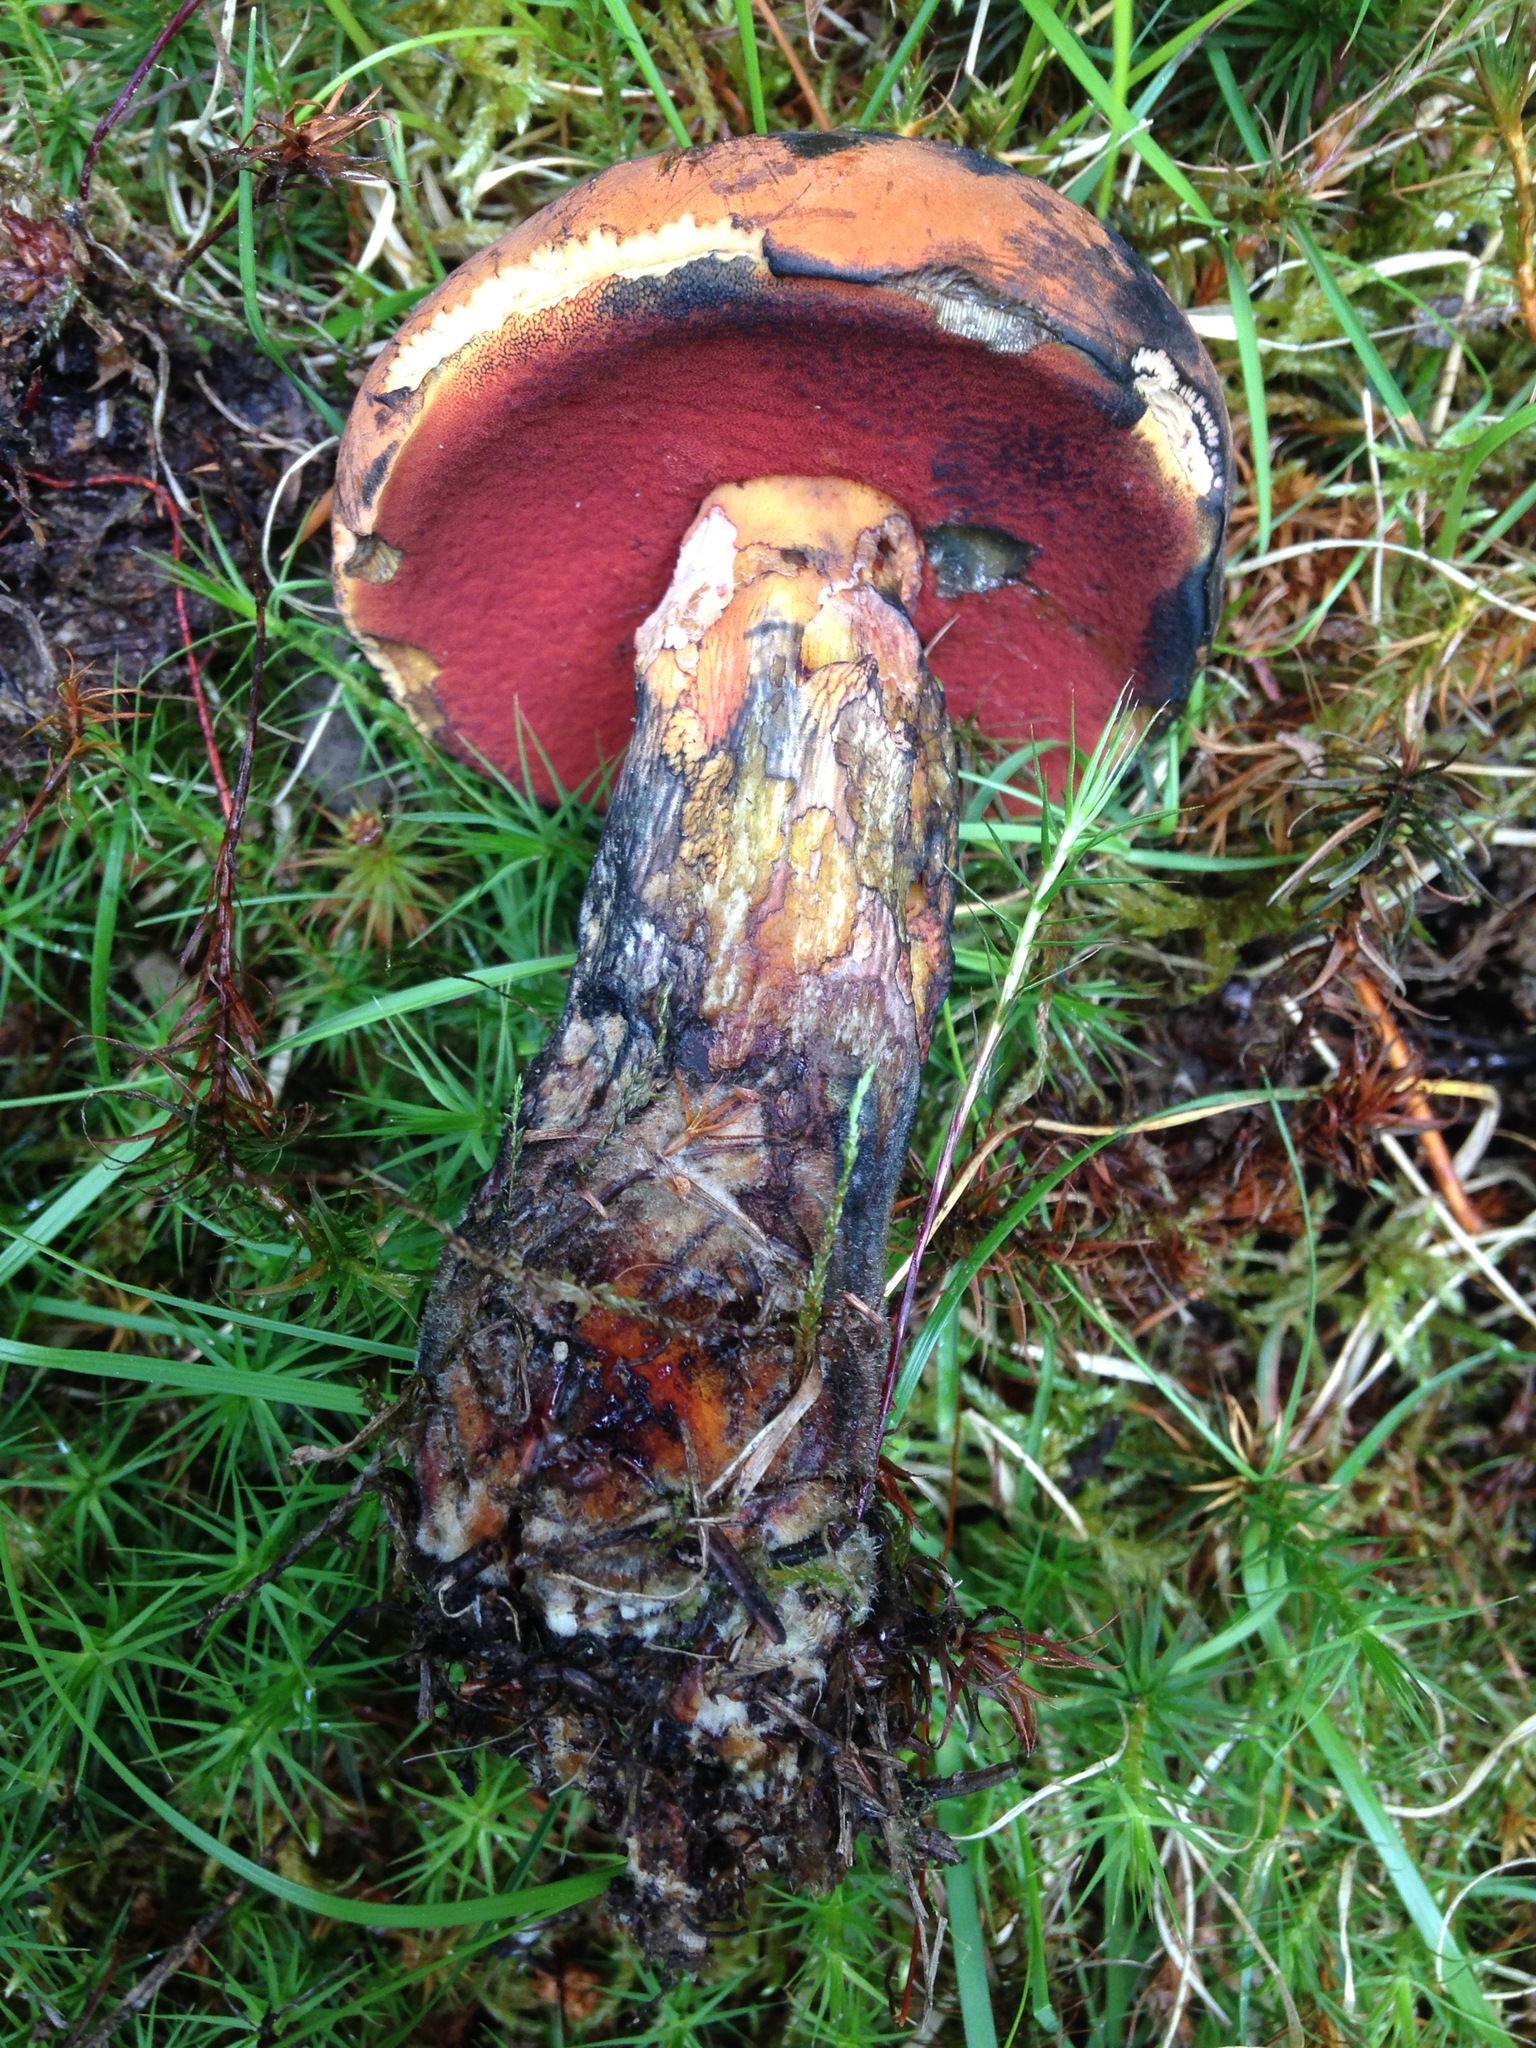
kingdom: Fungi
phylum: Basidiomycota
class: Agaricomycetes
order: Boletales
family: Boletaceae
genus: Boletus
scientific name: Boletus subvelutipes
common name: Red-mouth bolete
